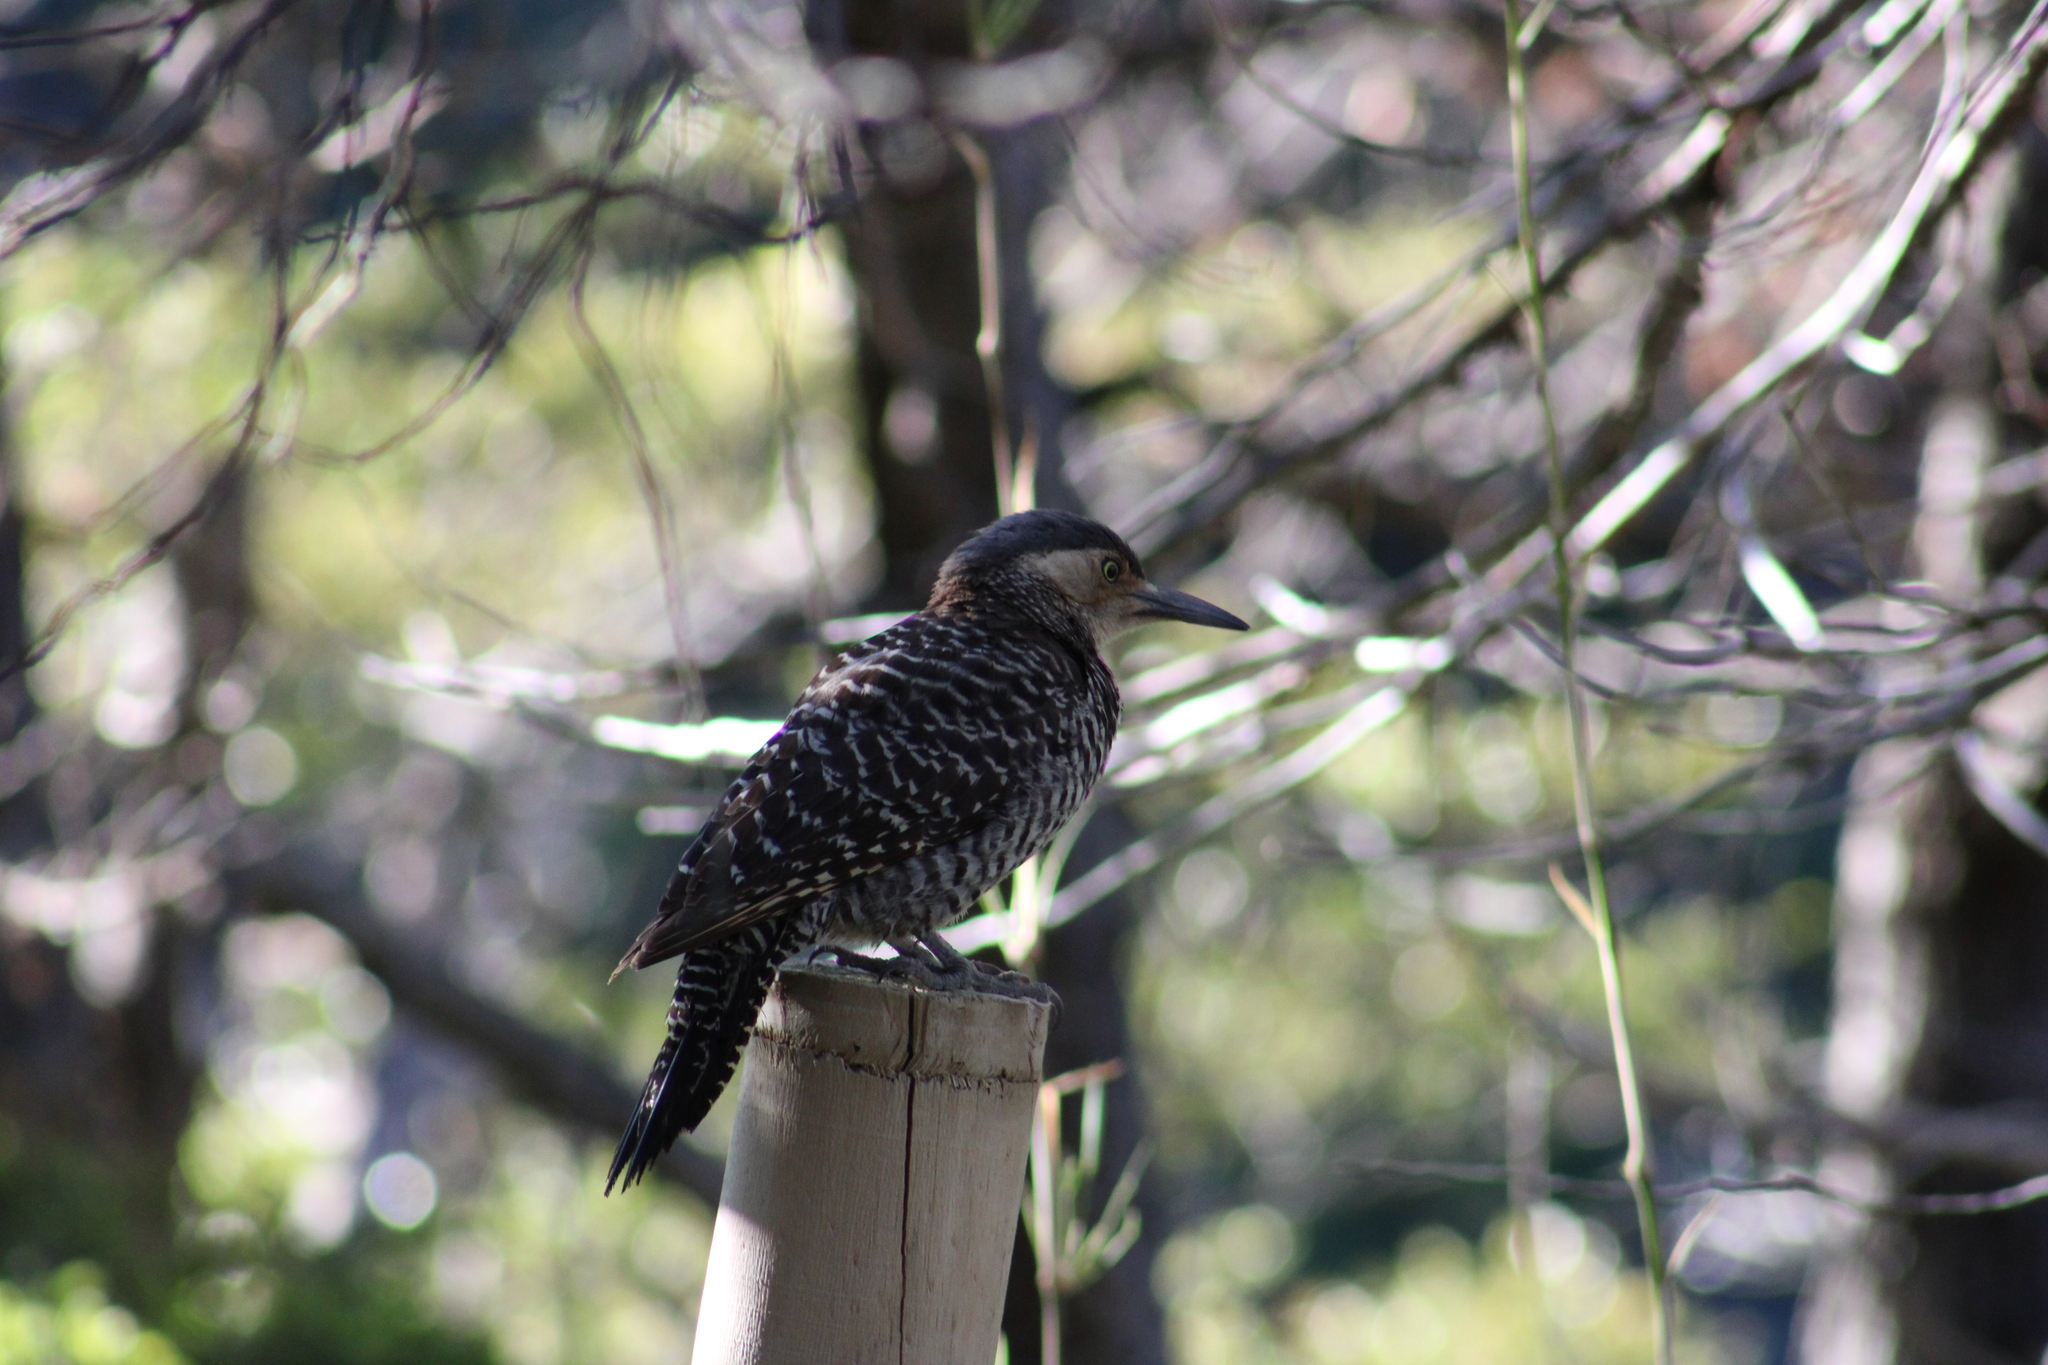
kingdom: Animalia
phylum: Chordata
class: Aves
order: Piciformes
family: Picidae
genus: Colaptes
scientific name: Colaptes pitius
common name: Chilean flicker
